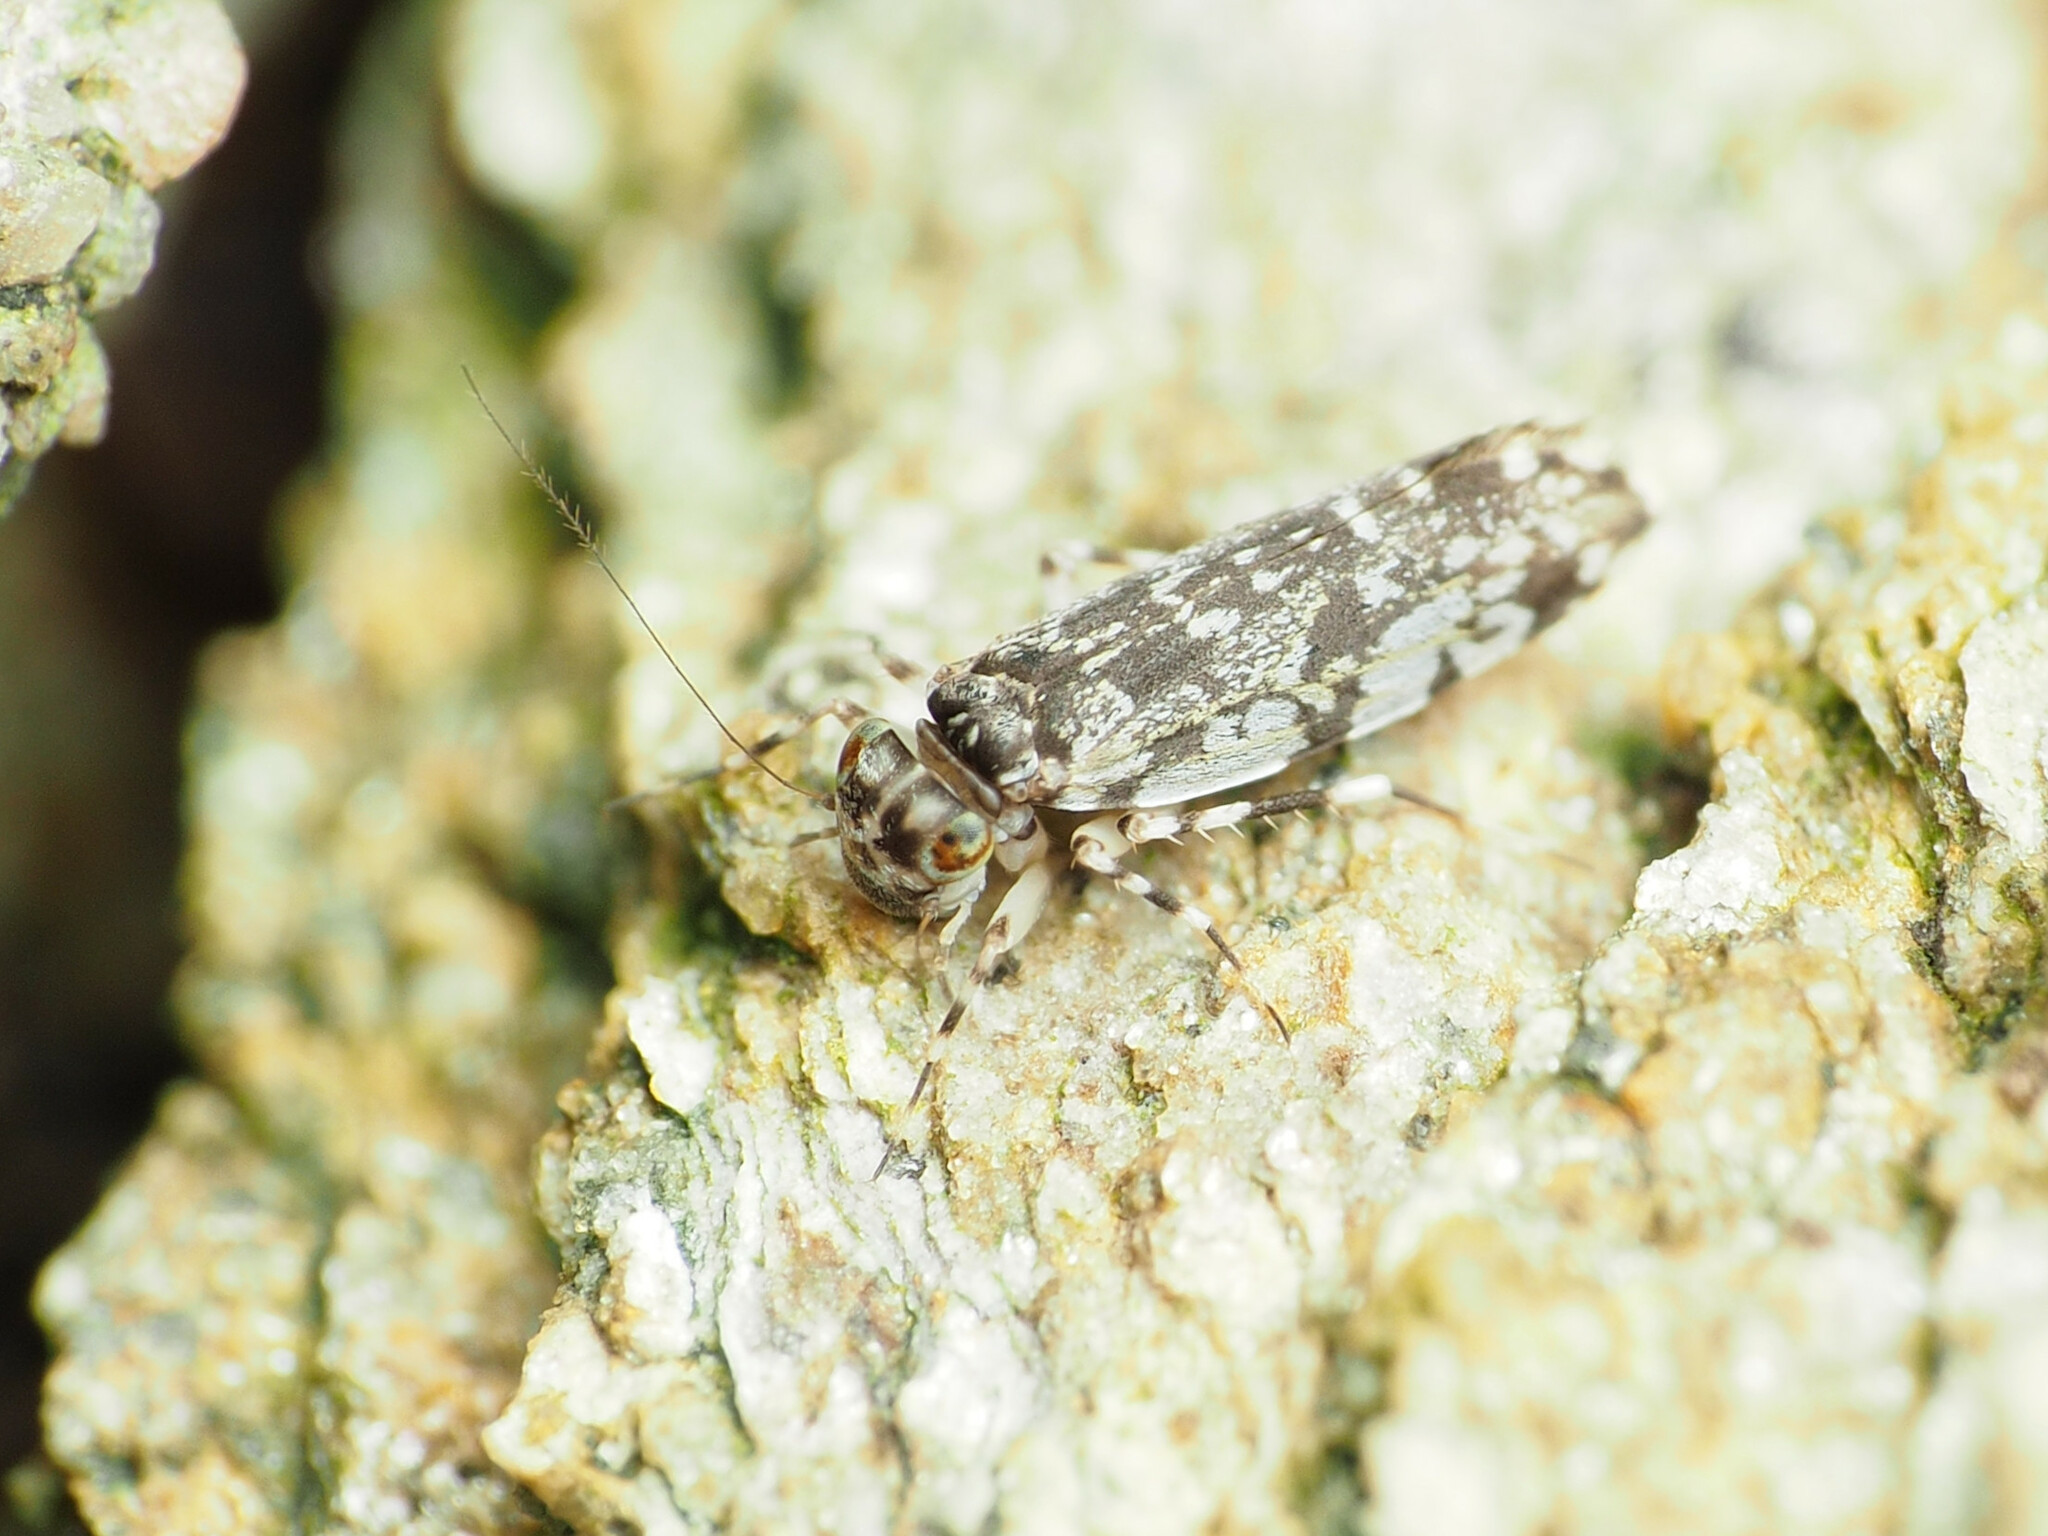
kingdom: Animalia
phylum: Arthropoda
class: Insecta
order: Psocodea
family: Amphientomidae
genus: Stimulopalpus
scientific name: Stimulopalpus japonicus
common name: Tropical bark louse
